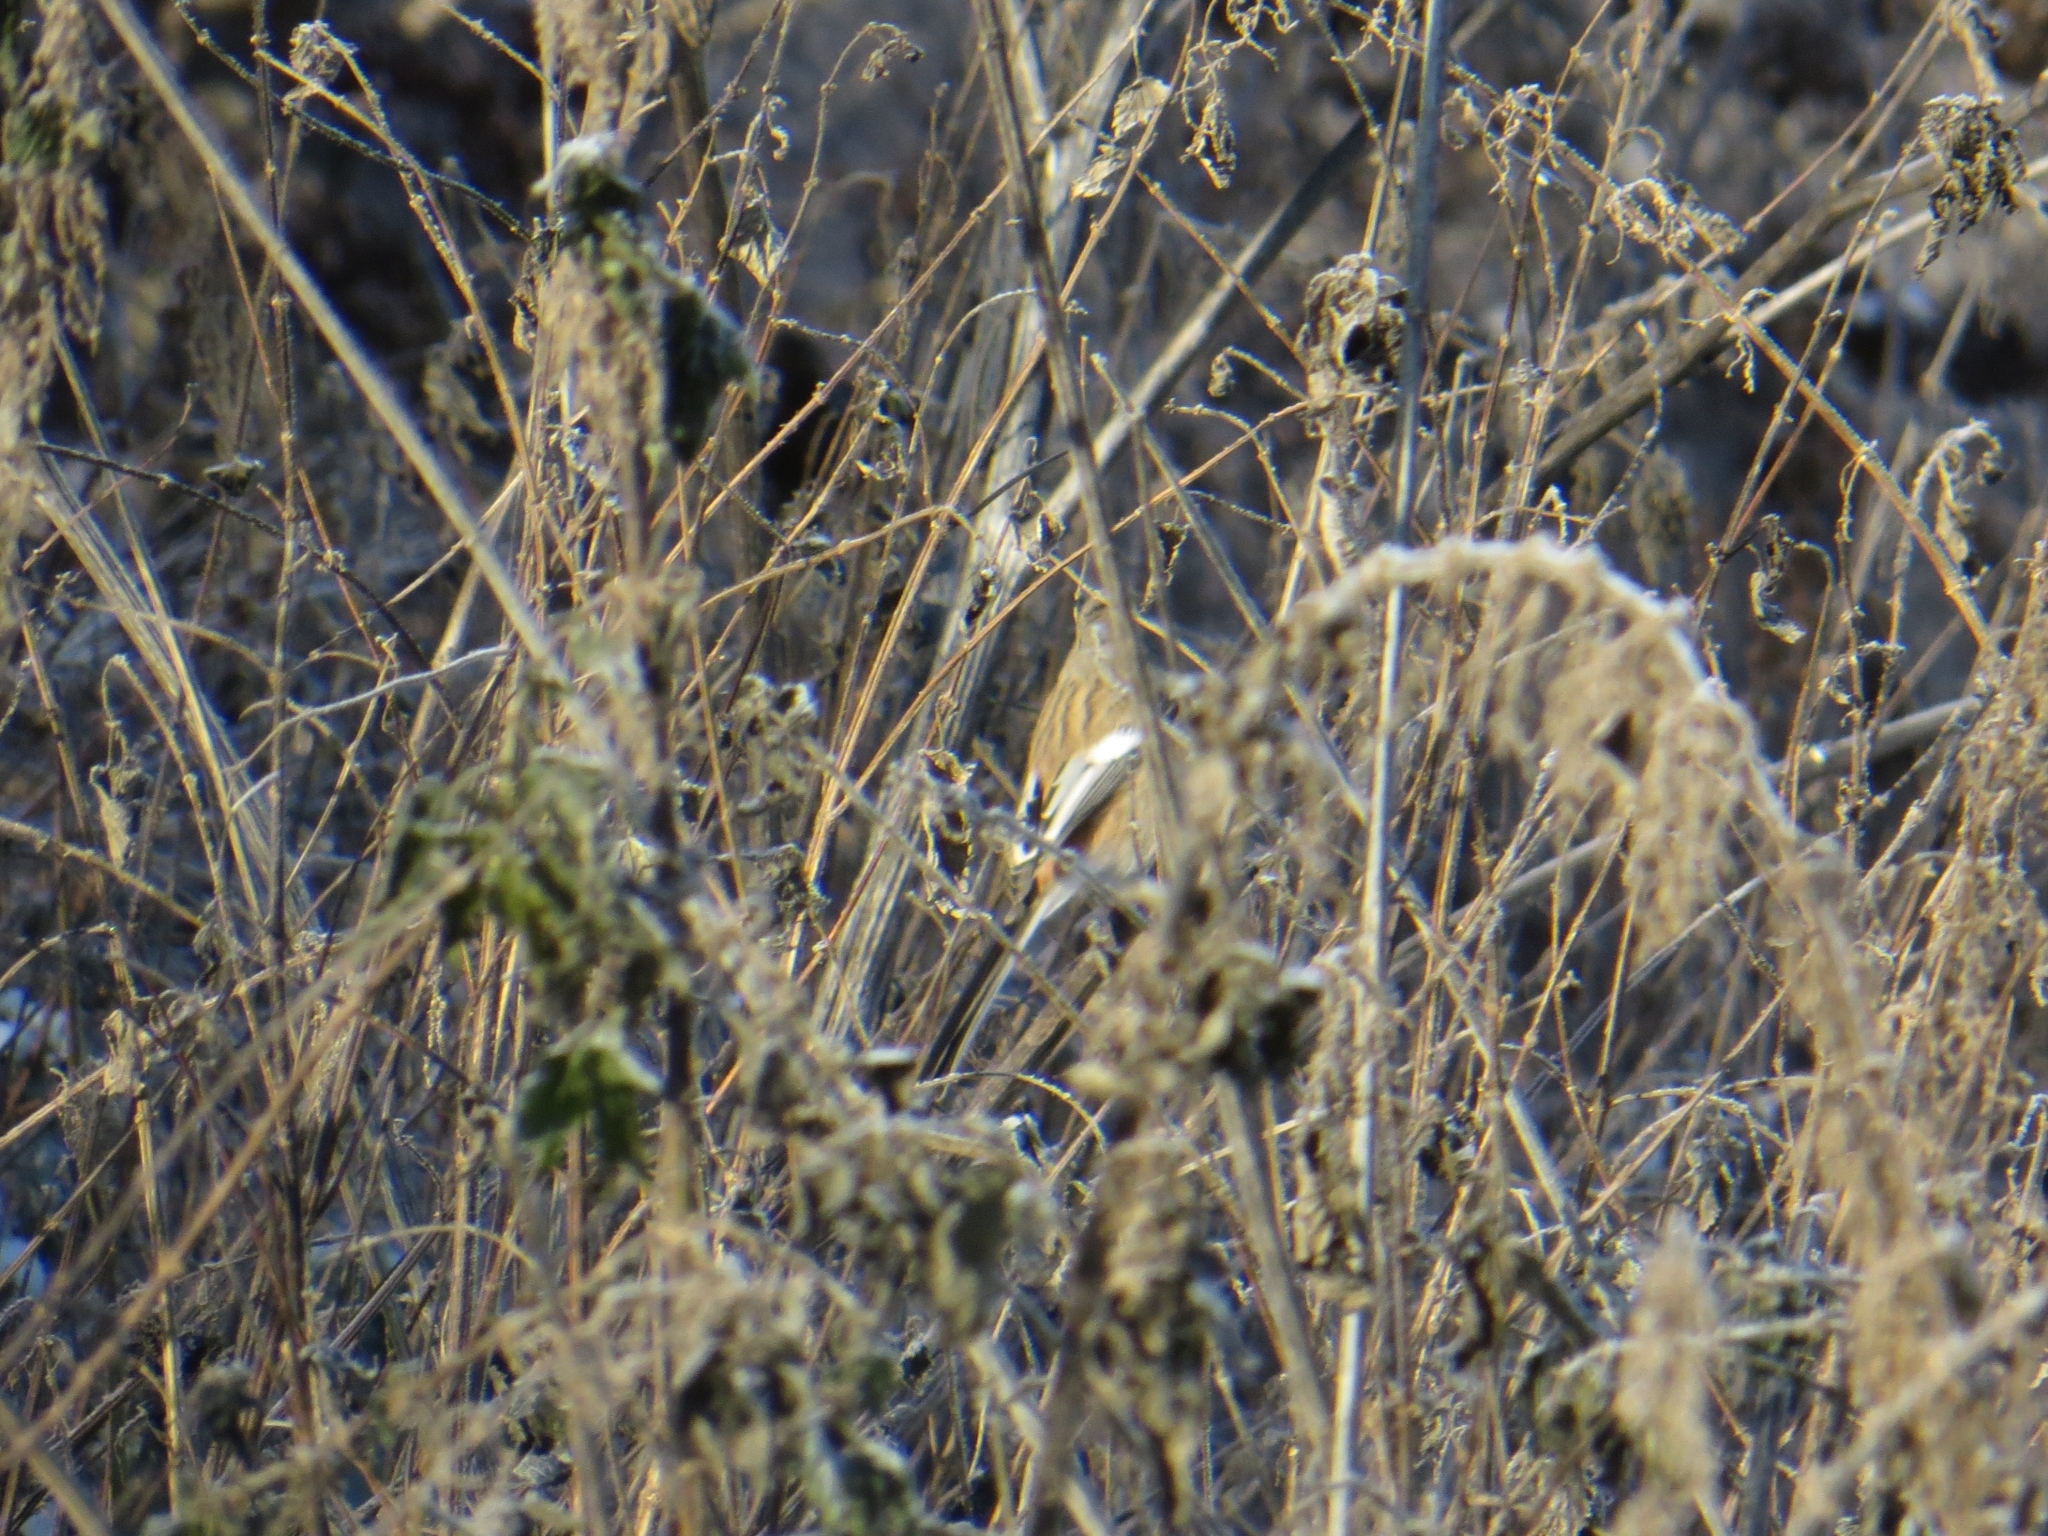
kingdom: Animalia
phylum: Chordata
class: Aves
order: Passeriformes
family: Fringillidae
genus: Carpodacus
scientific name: Carpodacus sibiricus
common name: Long-tailed rosefinch
